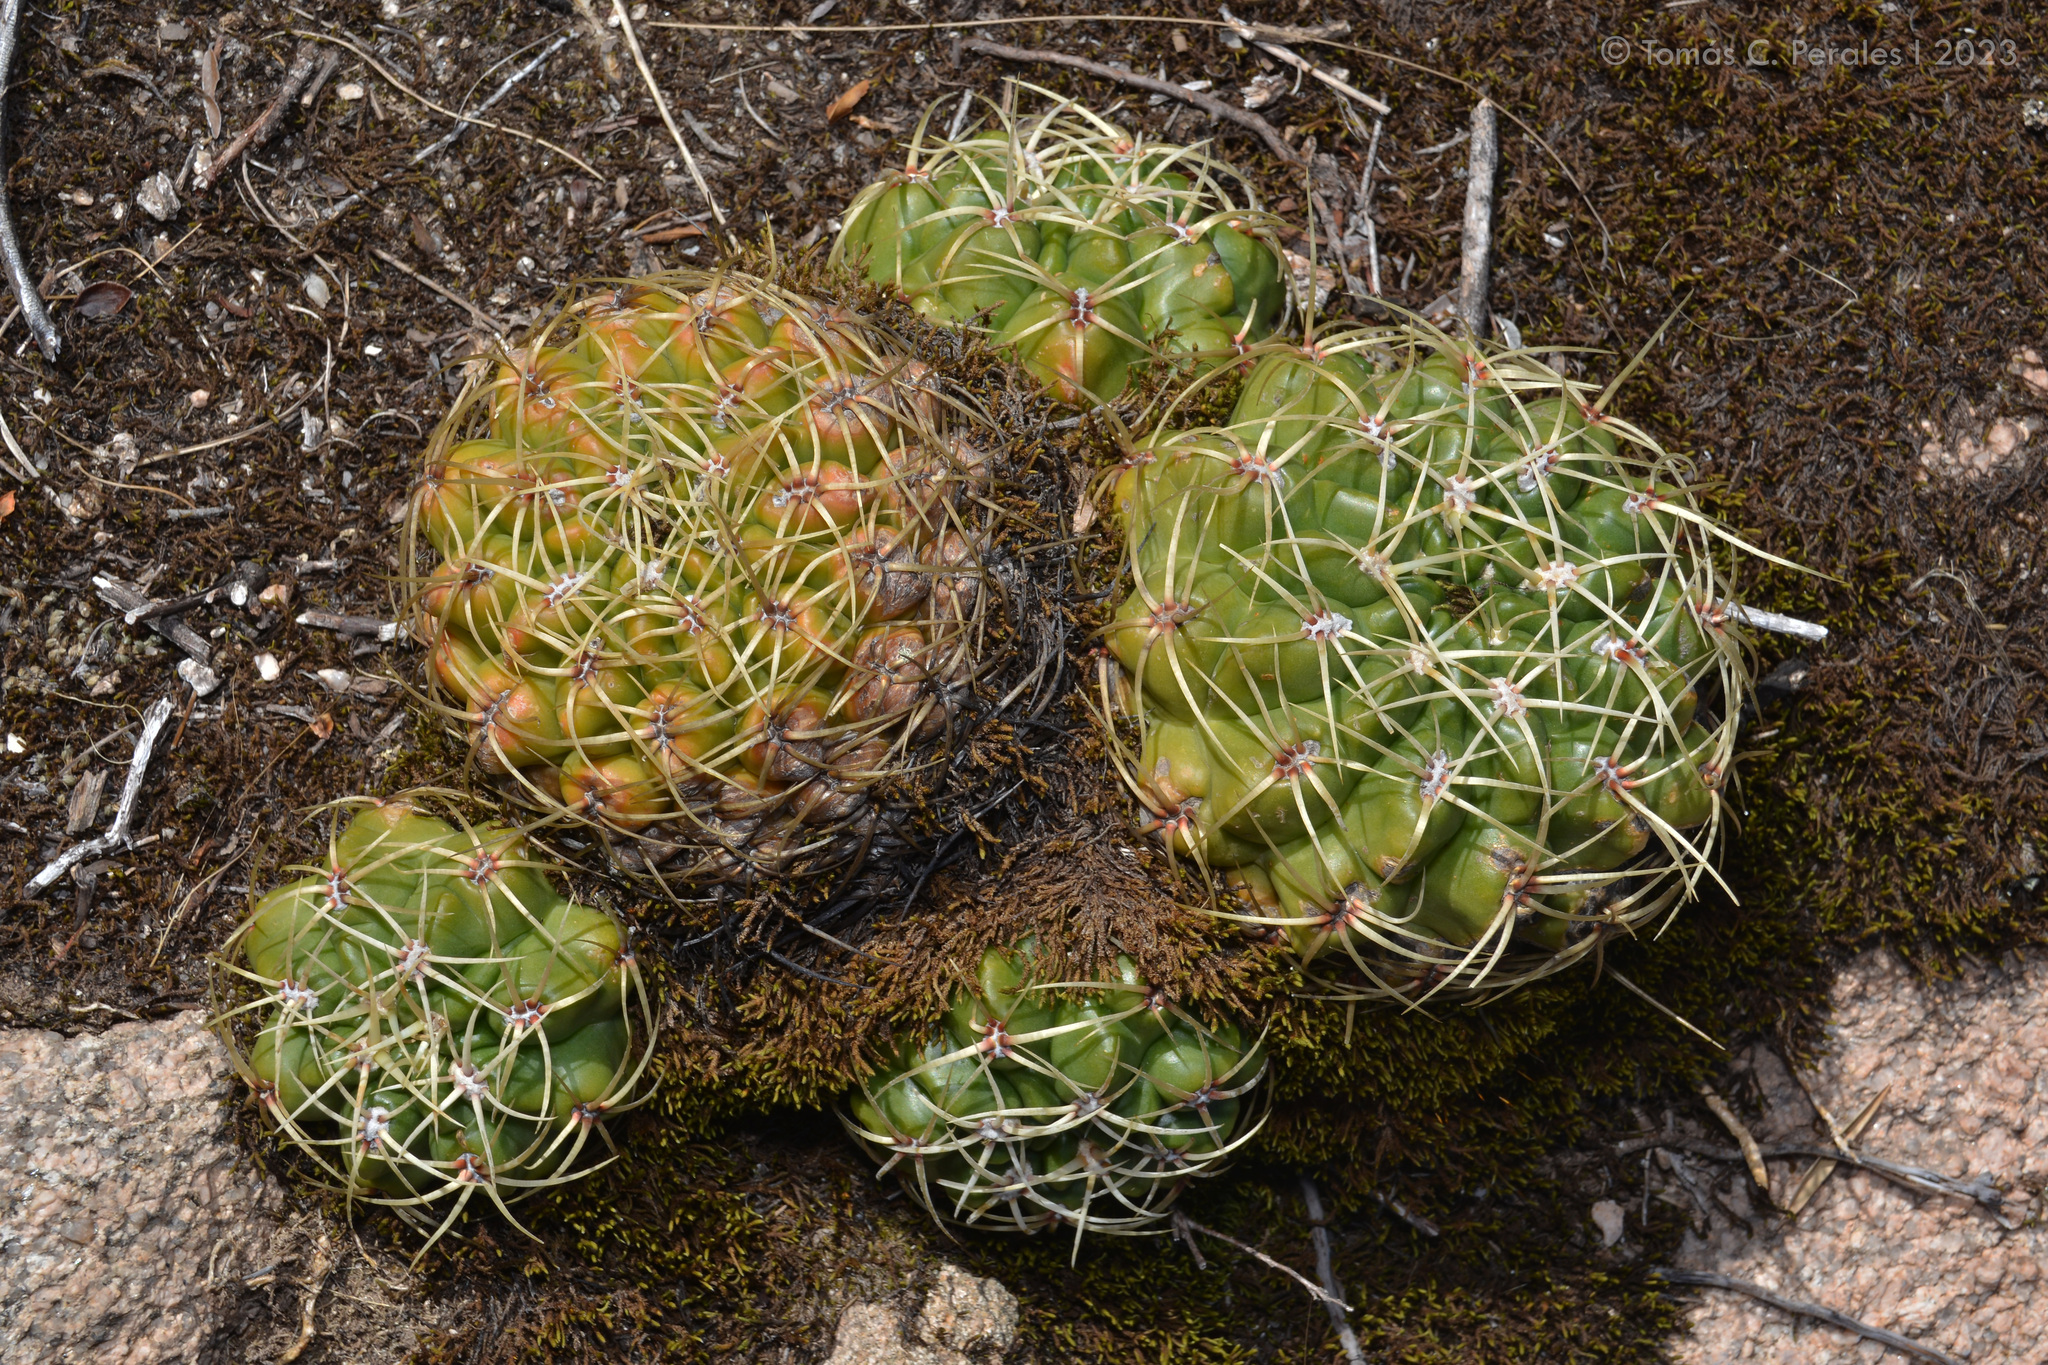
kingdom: Plantae
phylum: Tracheophyta
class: Magnoliopsida
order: Caryophyllales
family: Cactaceae
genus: Gymnocalycium
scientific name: Gymnocalycium monvillei
